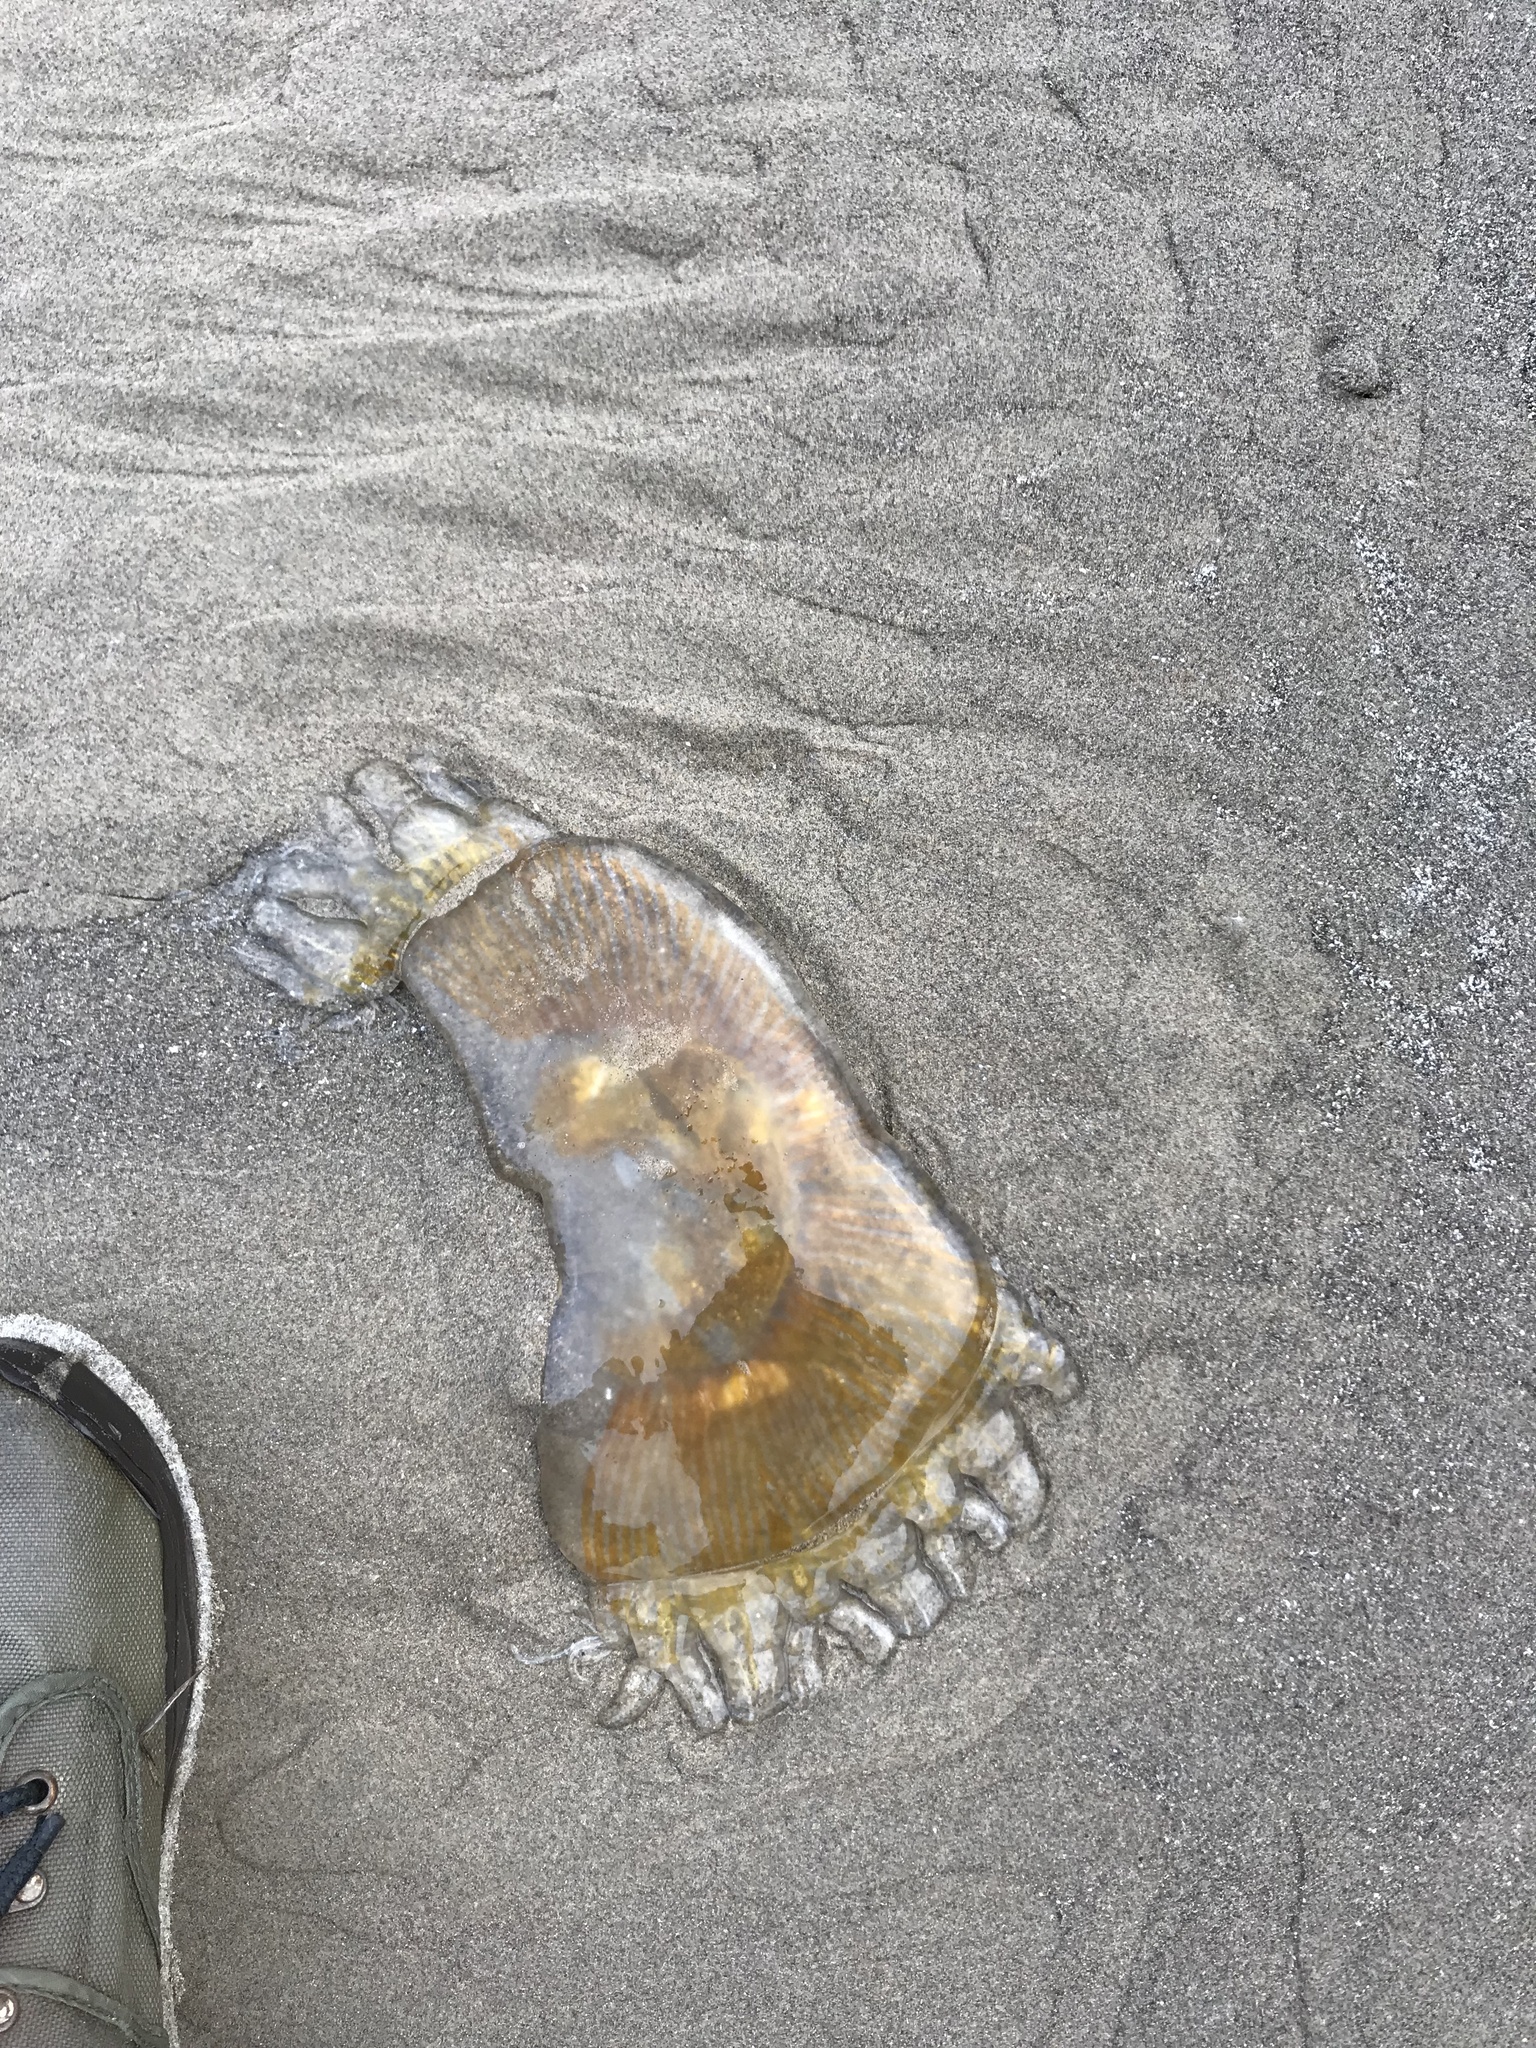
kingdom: Animalia
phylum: Cnidaria
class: Scyphozoa
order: Semaeostomeae
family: Phacellophoridae
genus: Phacellophora
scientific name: Phacellophora camtschatica
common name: Fried-egg jellyfish
